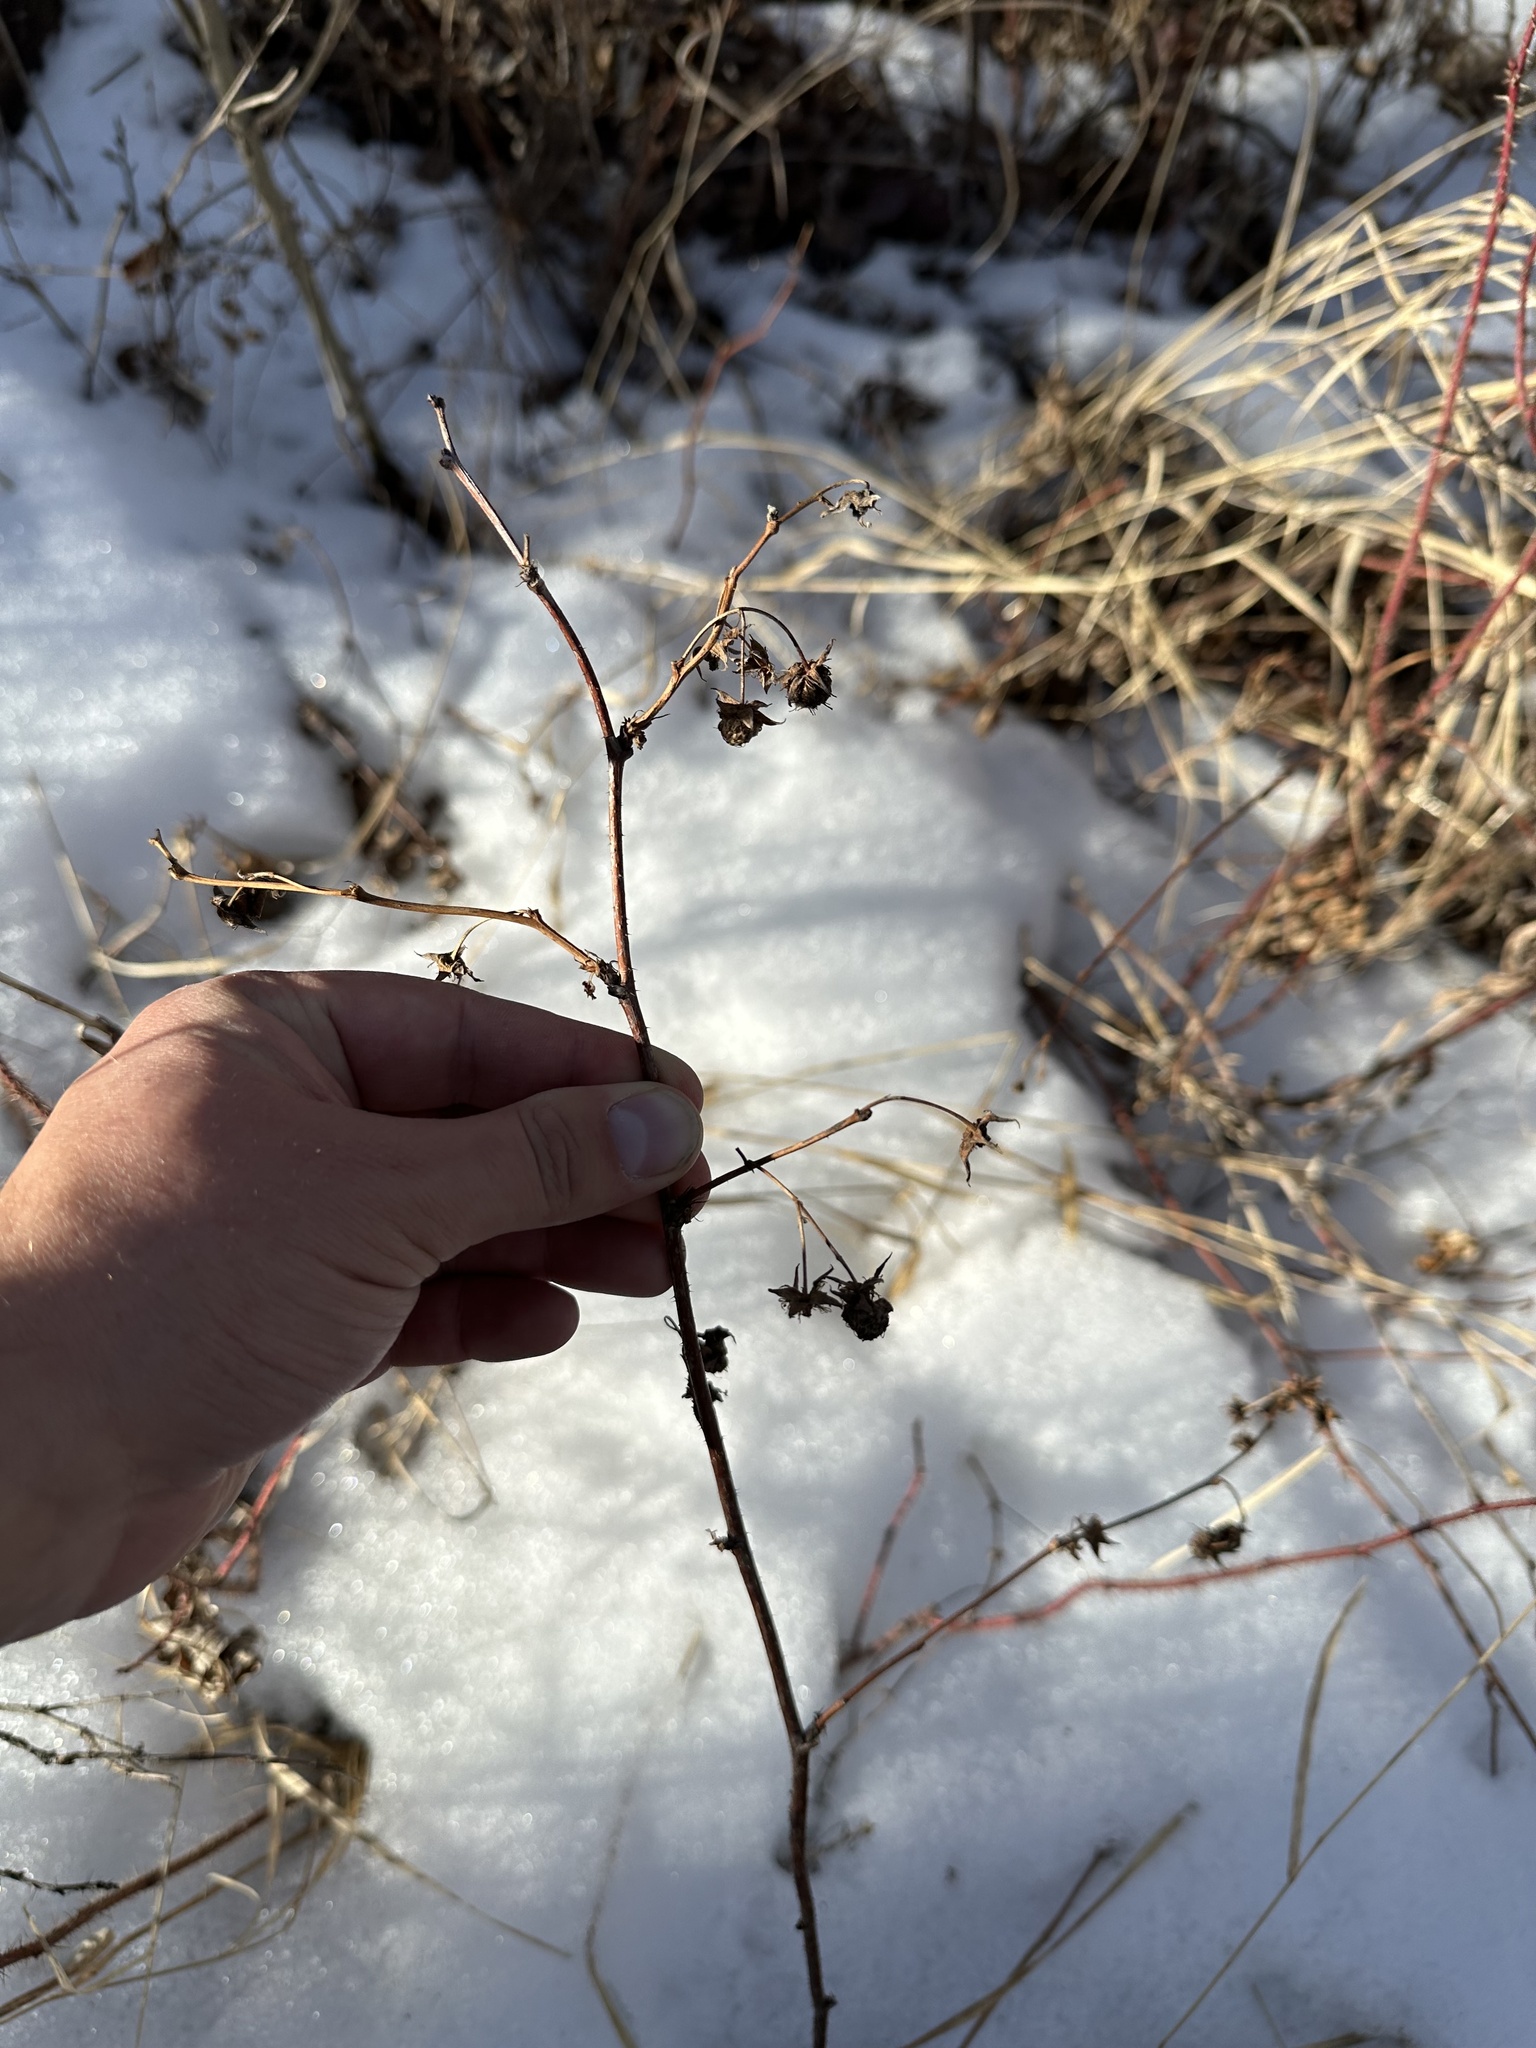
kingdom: Plantae
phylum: Tracheophyta
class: Magnoliopsida
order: Rosales
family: Rosaceae
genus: Rubus
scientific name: Rubus idaeus
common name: Raspberry
